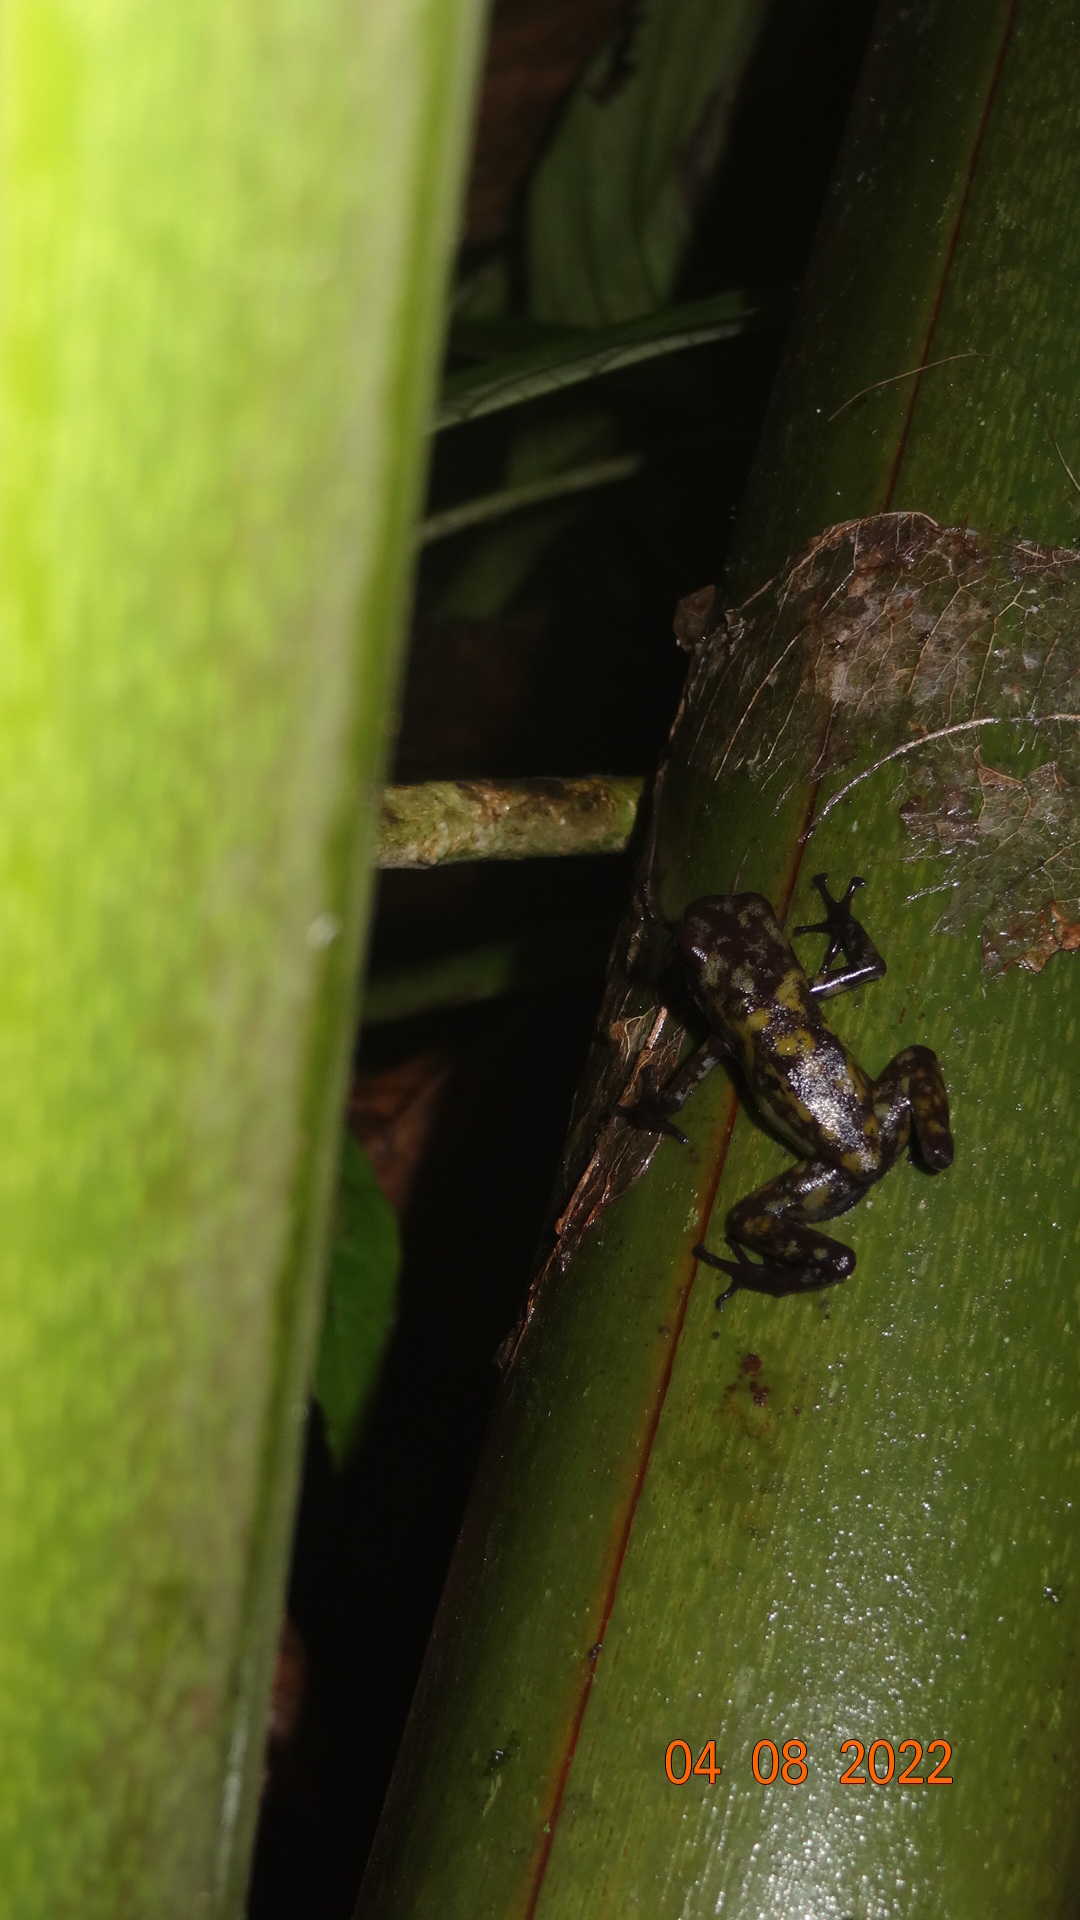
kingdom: Animalia
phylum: Chordata
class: Amphibia
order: Anura
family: Dendrobatidae
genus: Oophaga
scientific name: Oophaga sylvatica
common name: Little-devil poison frog
